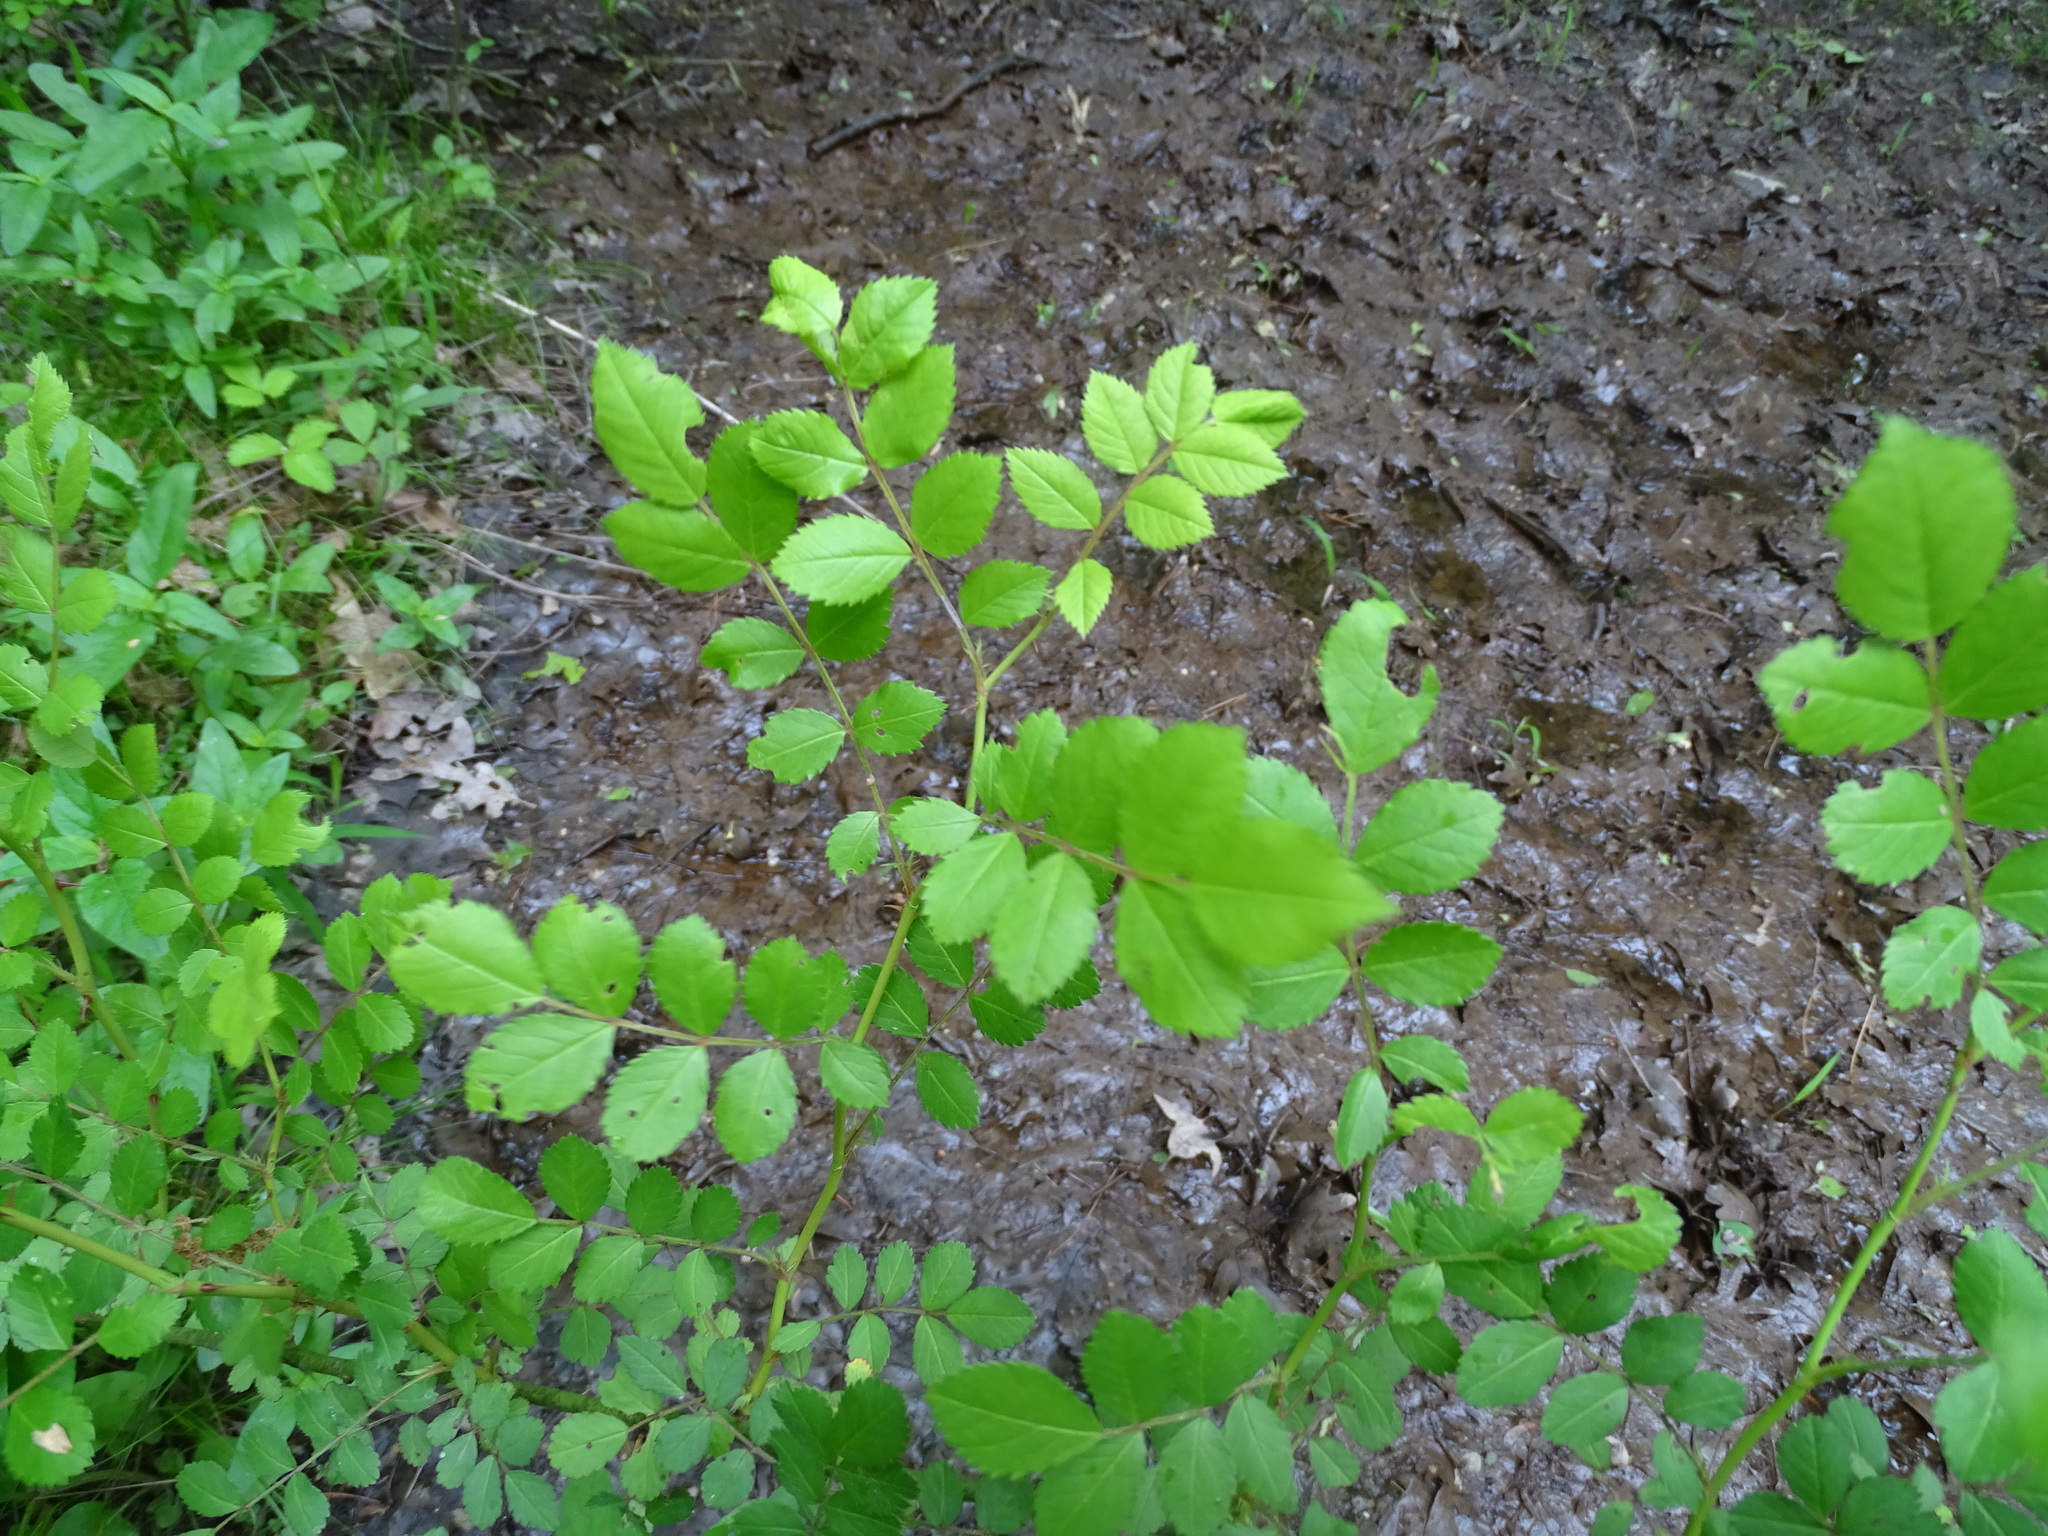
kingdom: Plantae
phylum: Tracheophyta
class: Magnoliopsida
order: Rosales
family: Rosaceae
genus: Rosa
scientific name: Rosa multiflora
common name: Multiflora rose
